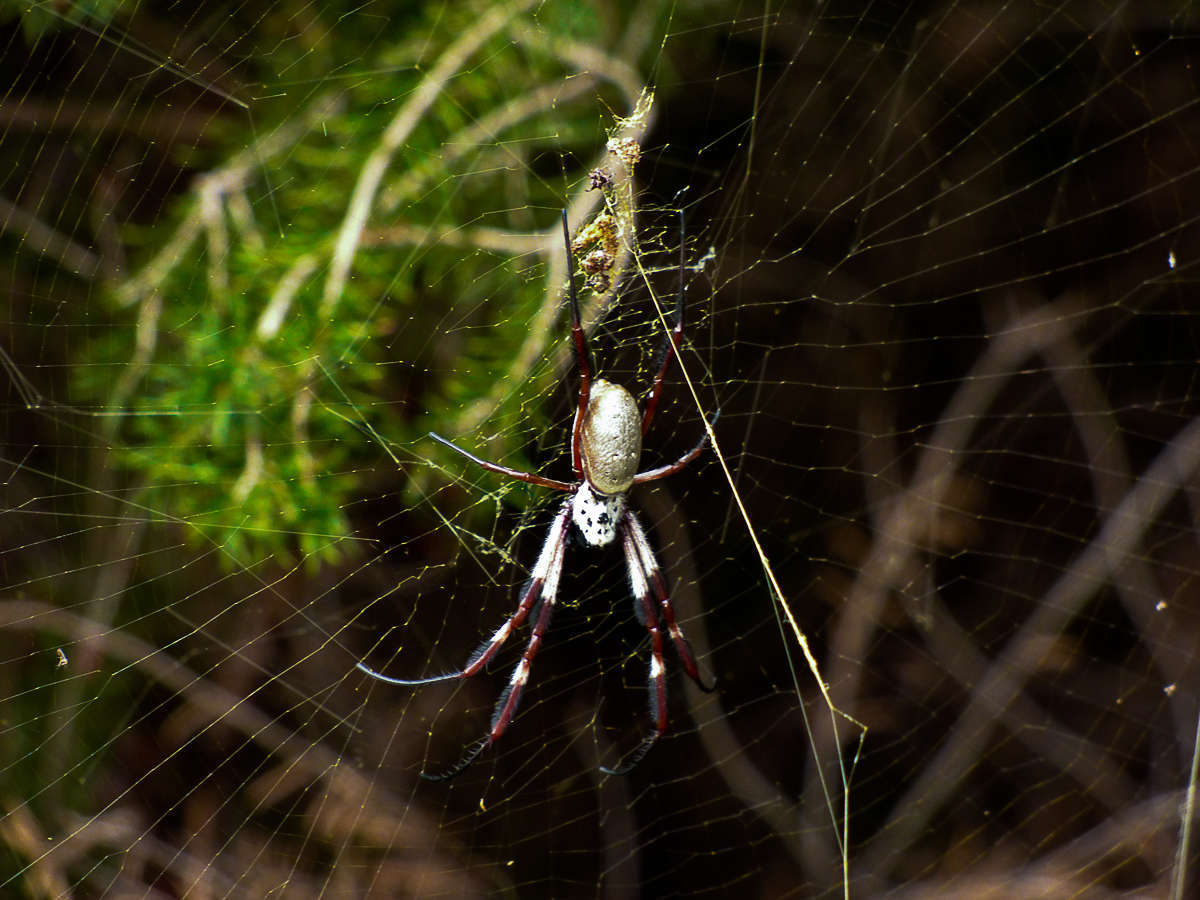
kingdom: Animalia
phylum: Arthropoda
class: Arachnida
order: Araneae
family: Araneidae
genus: Trichonephila
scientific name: Trichonephila edulis
